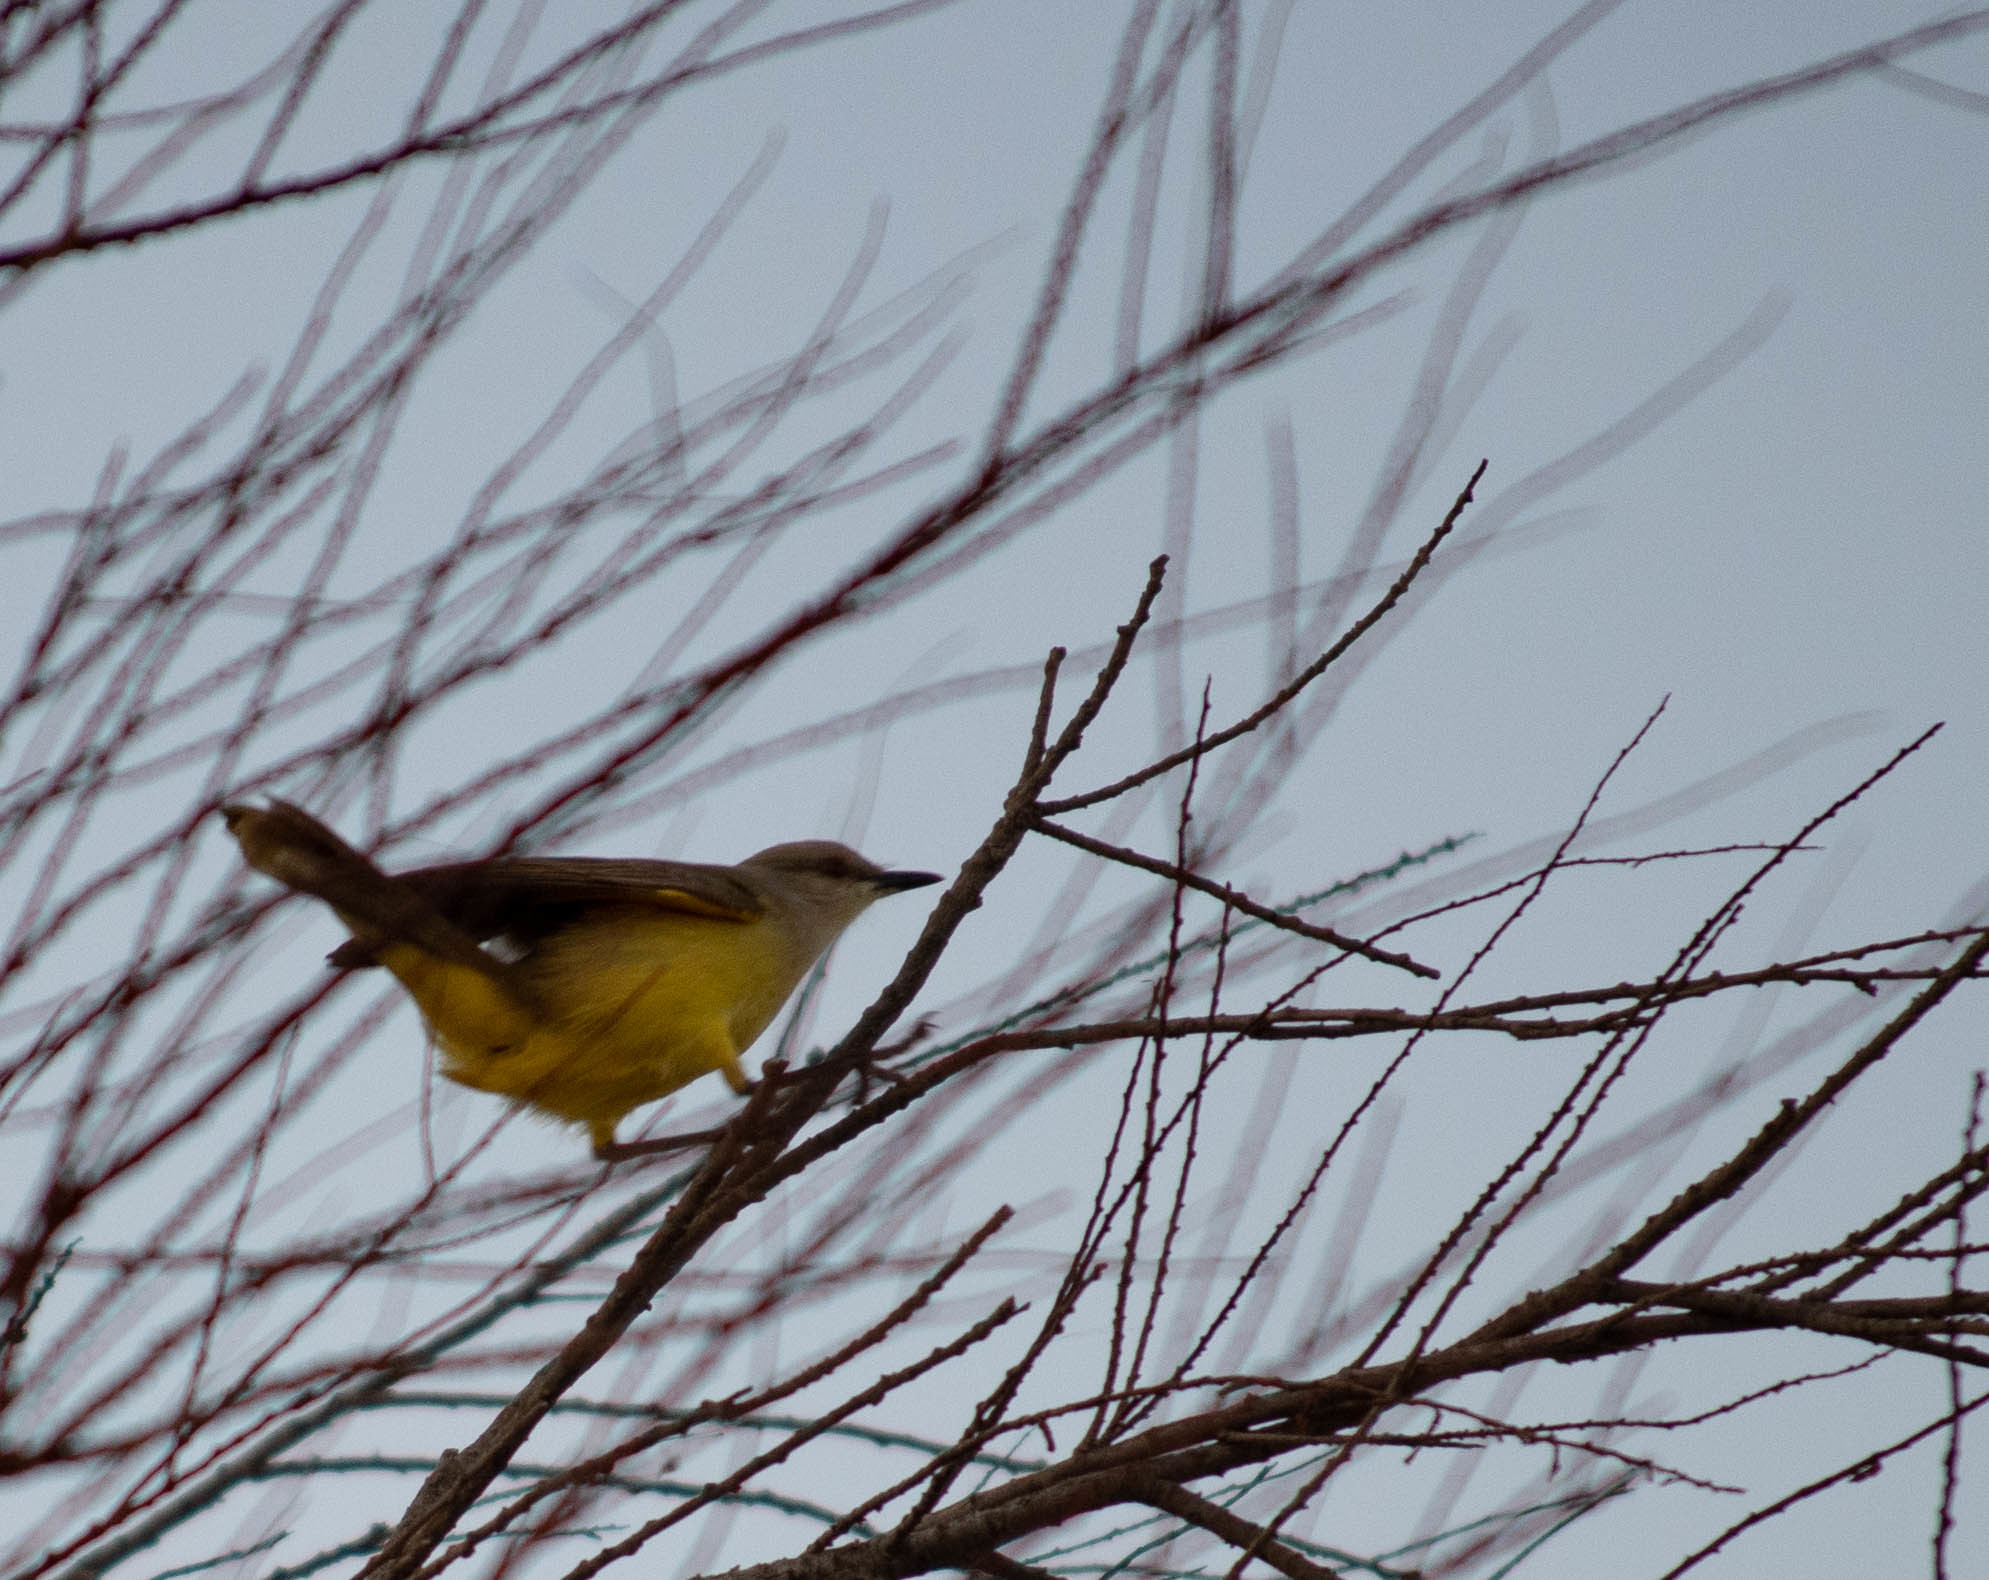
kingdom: Animalia
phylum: Chordata
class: Aves
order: Passeriformes
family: Tyrannidae
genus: Machetornis
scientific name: Machetornis rixosa
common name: Cattle tyrant
